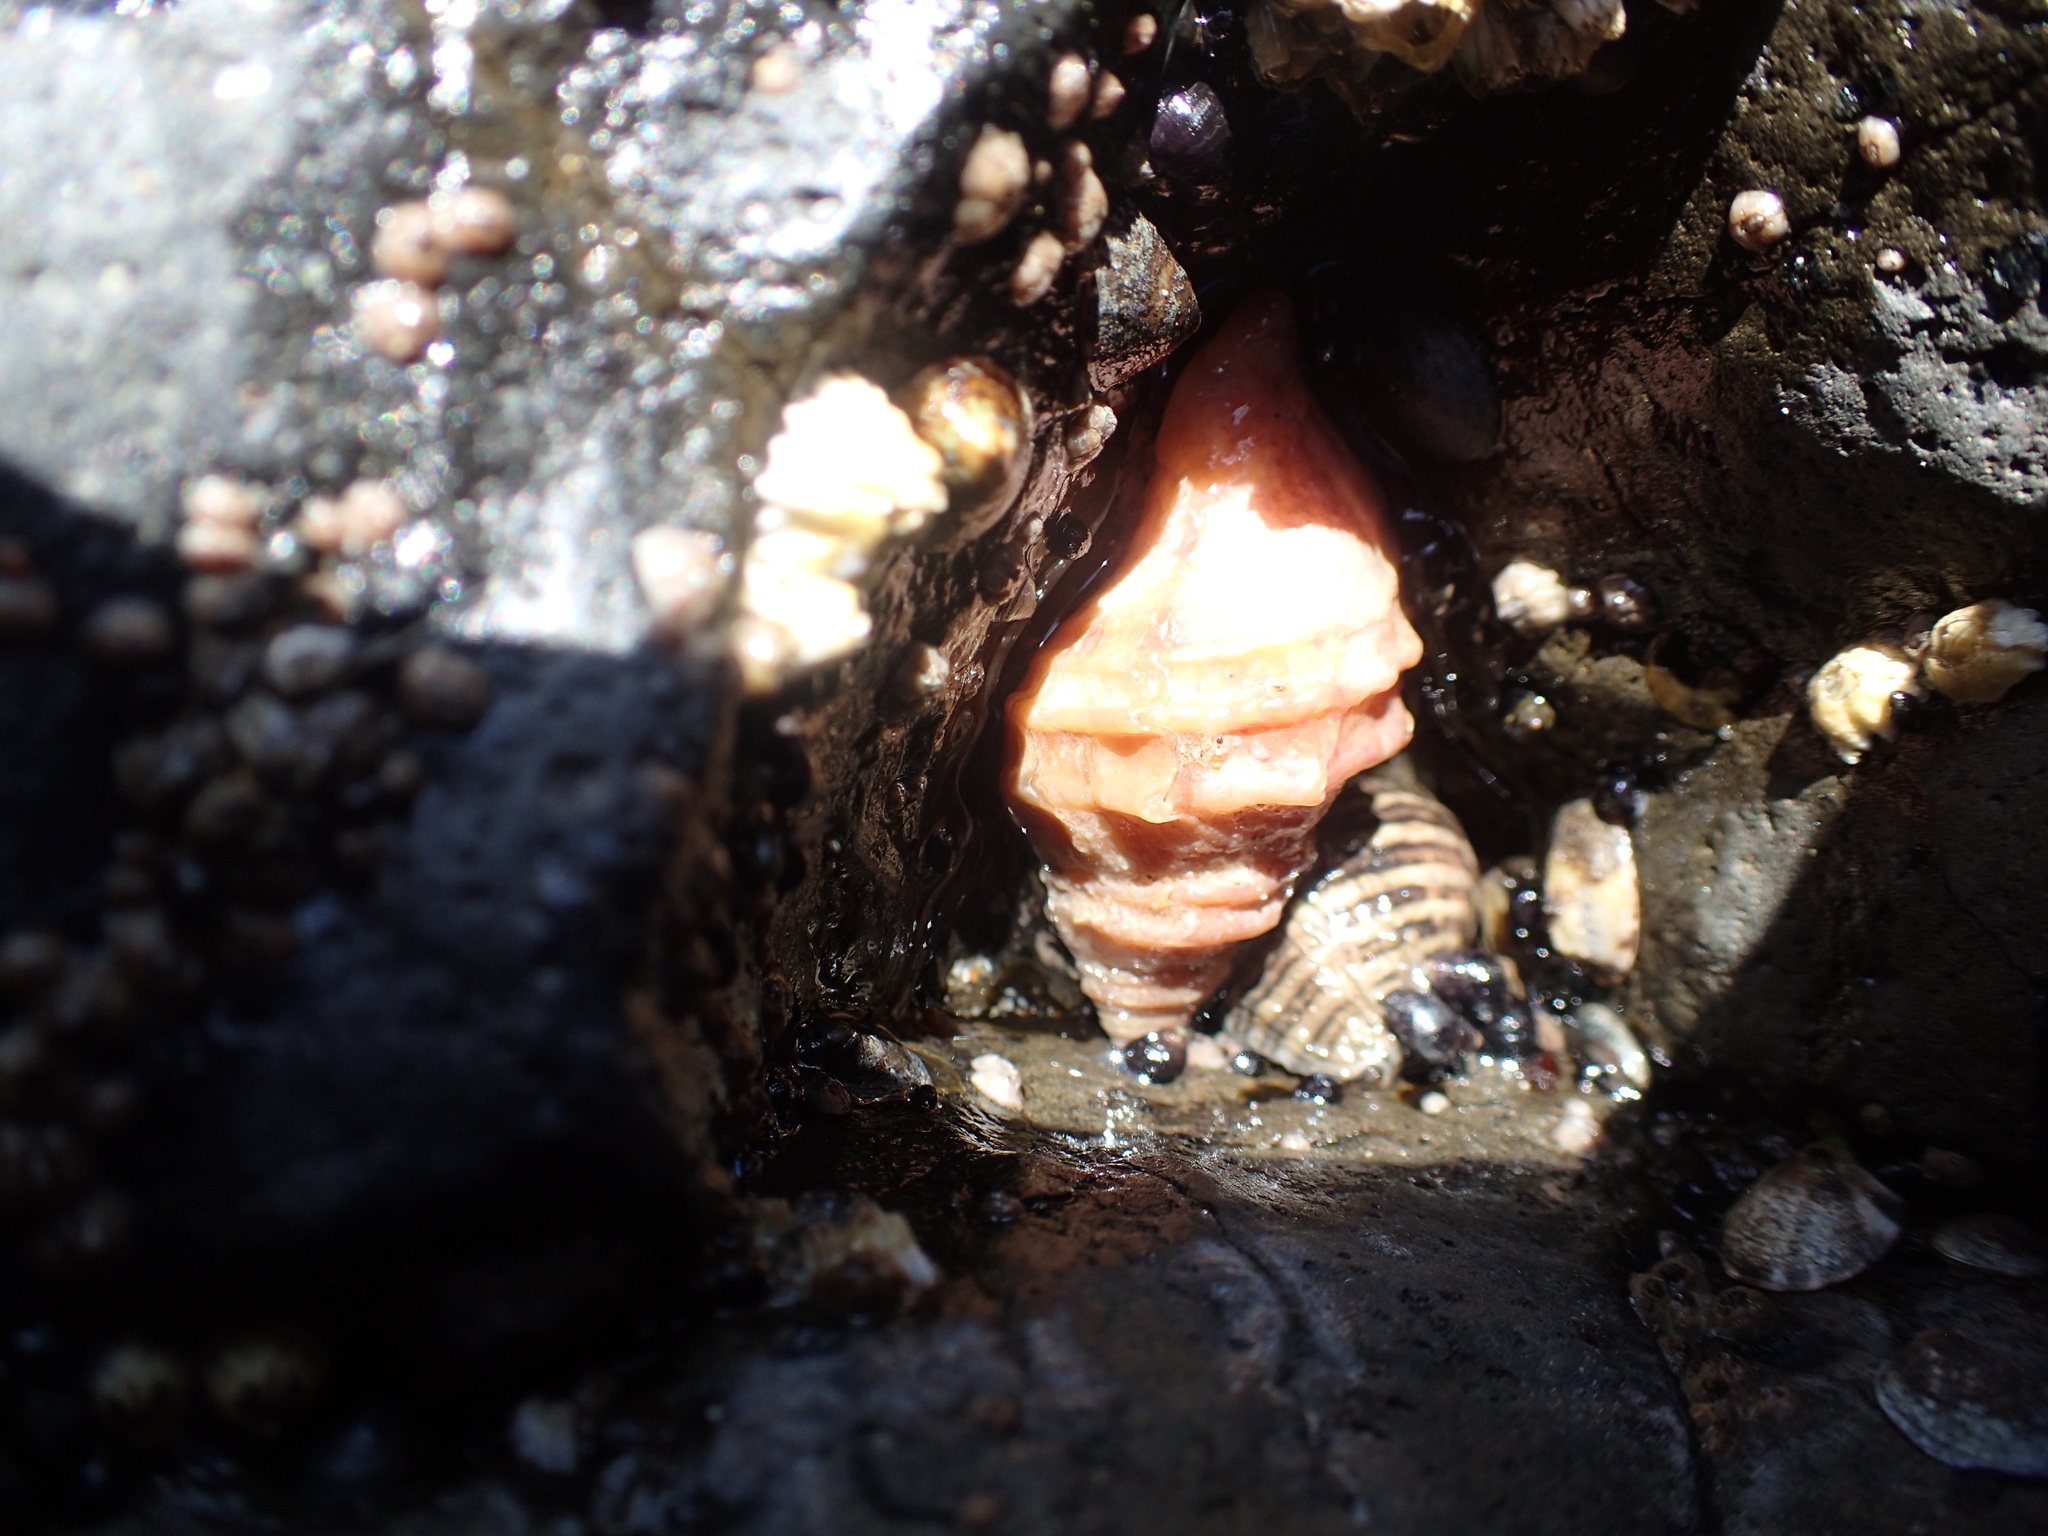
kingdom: Animalia
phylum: Mollusca
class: Gastropoda
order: Neogastropoda
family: Muricidae
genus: Nucella
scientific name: Nucella lamellosa
